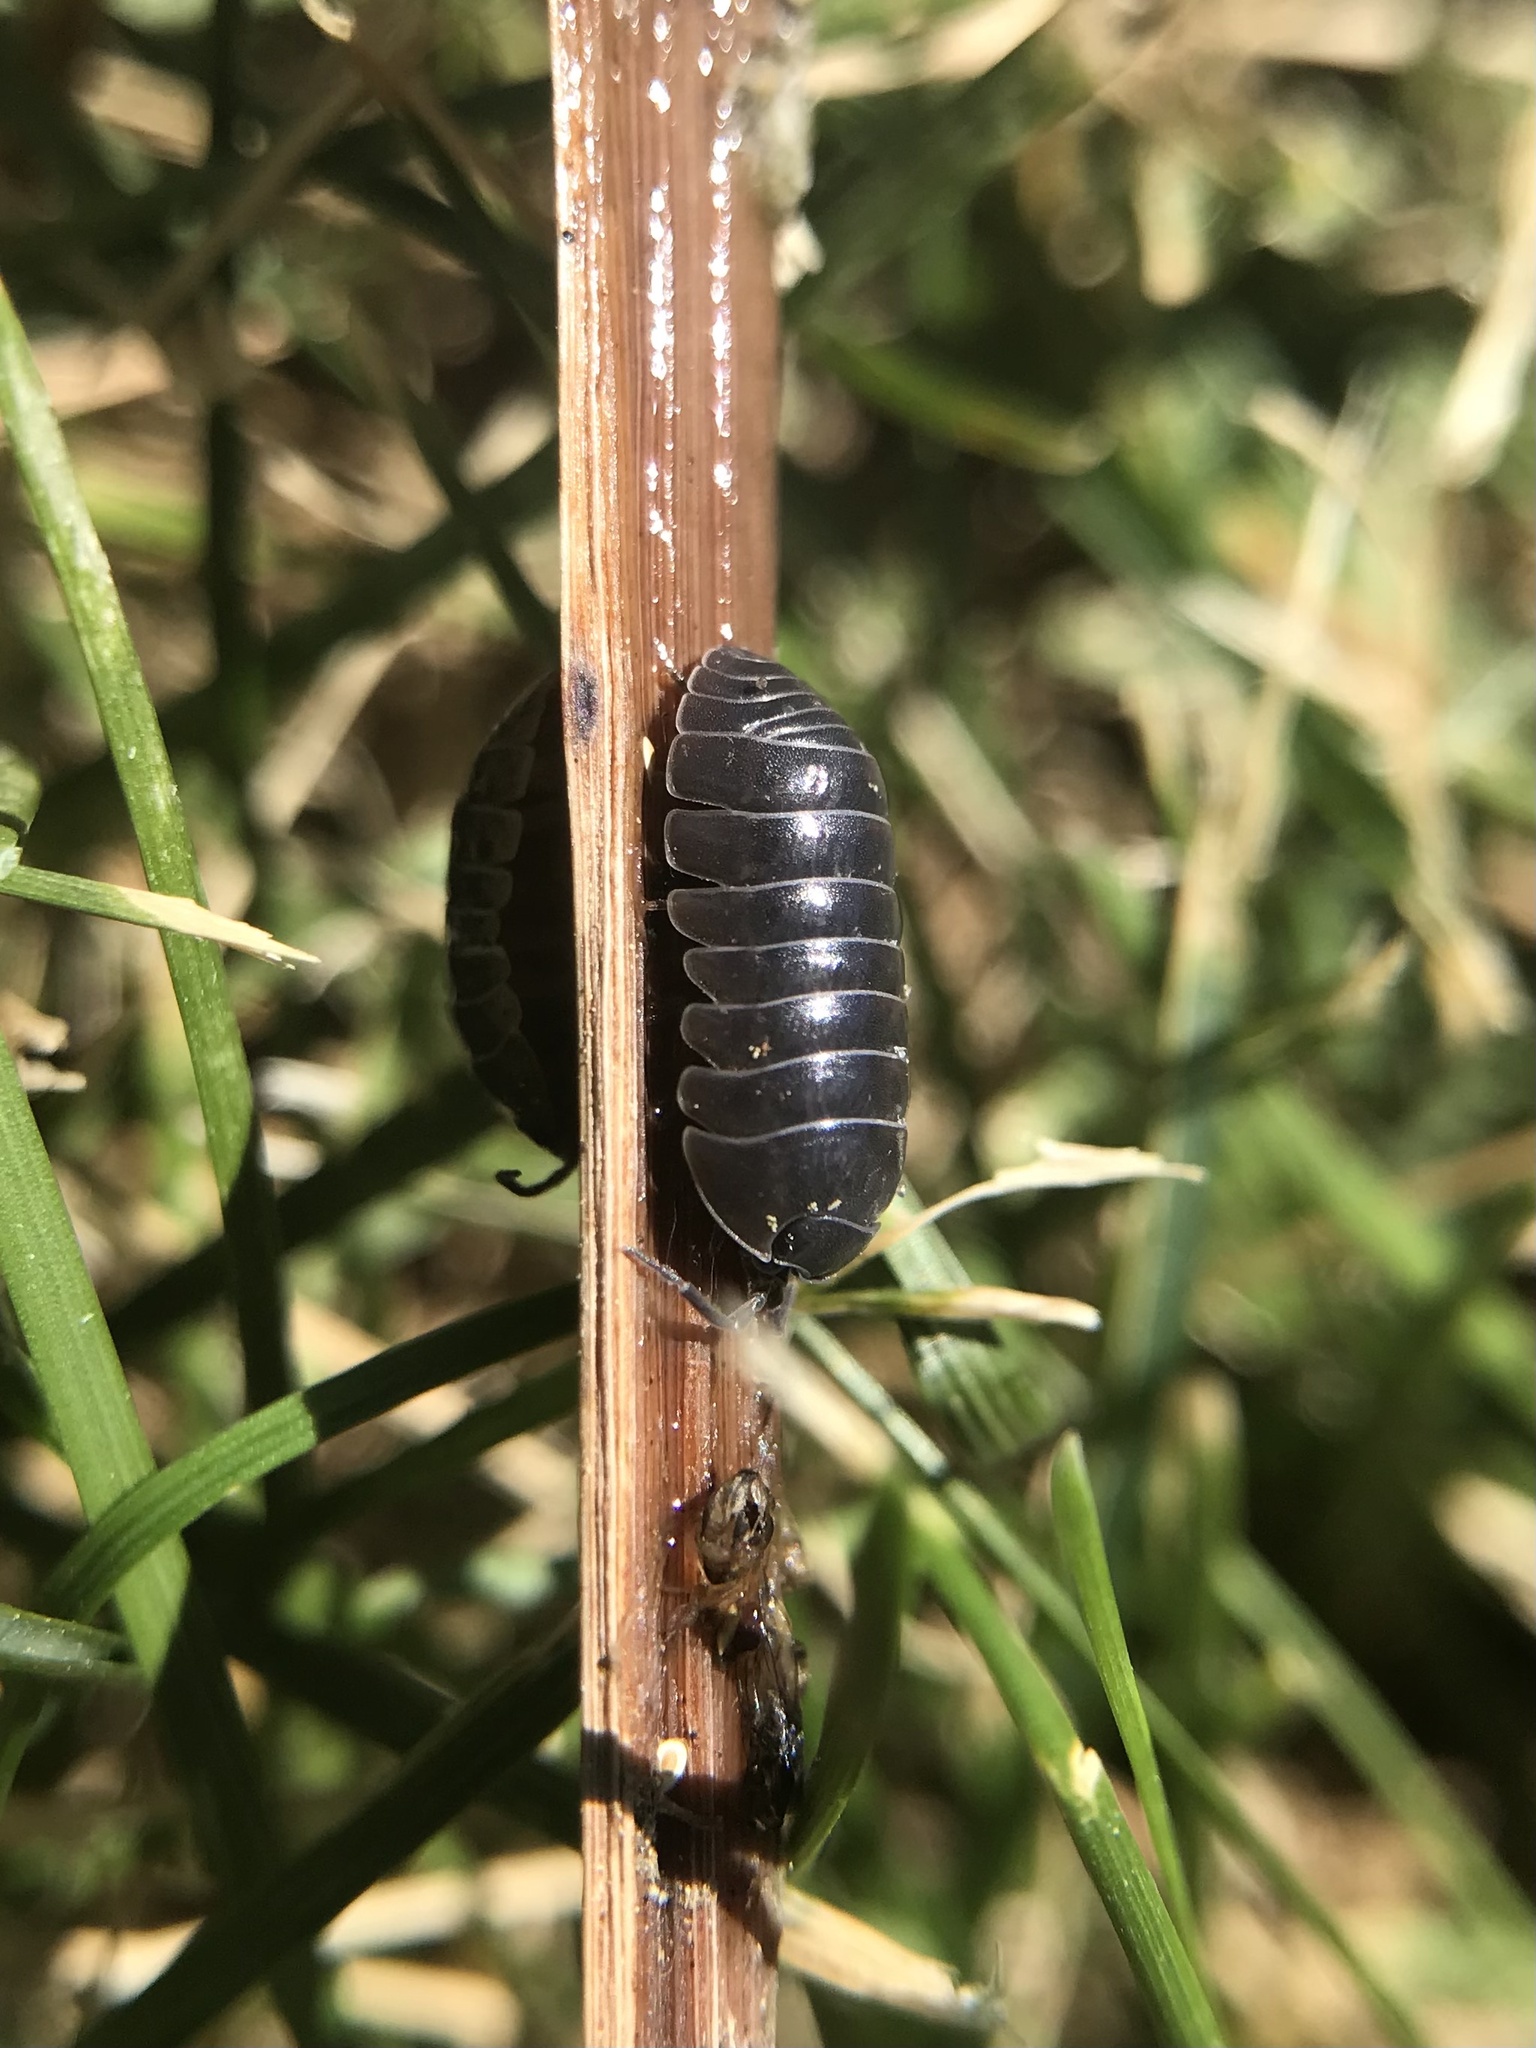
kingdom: Animalia
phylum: Arthropoda
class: Malacostraca
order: Isopoda
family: Armadillidiidae
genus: Armadillidium
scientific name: Armadillidium vulgare
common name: Common pill woodlouse
